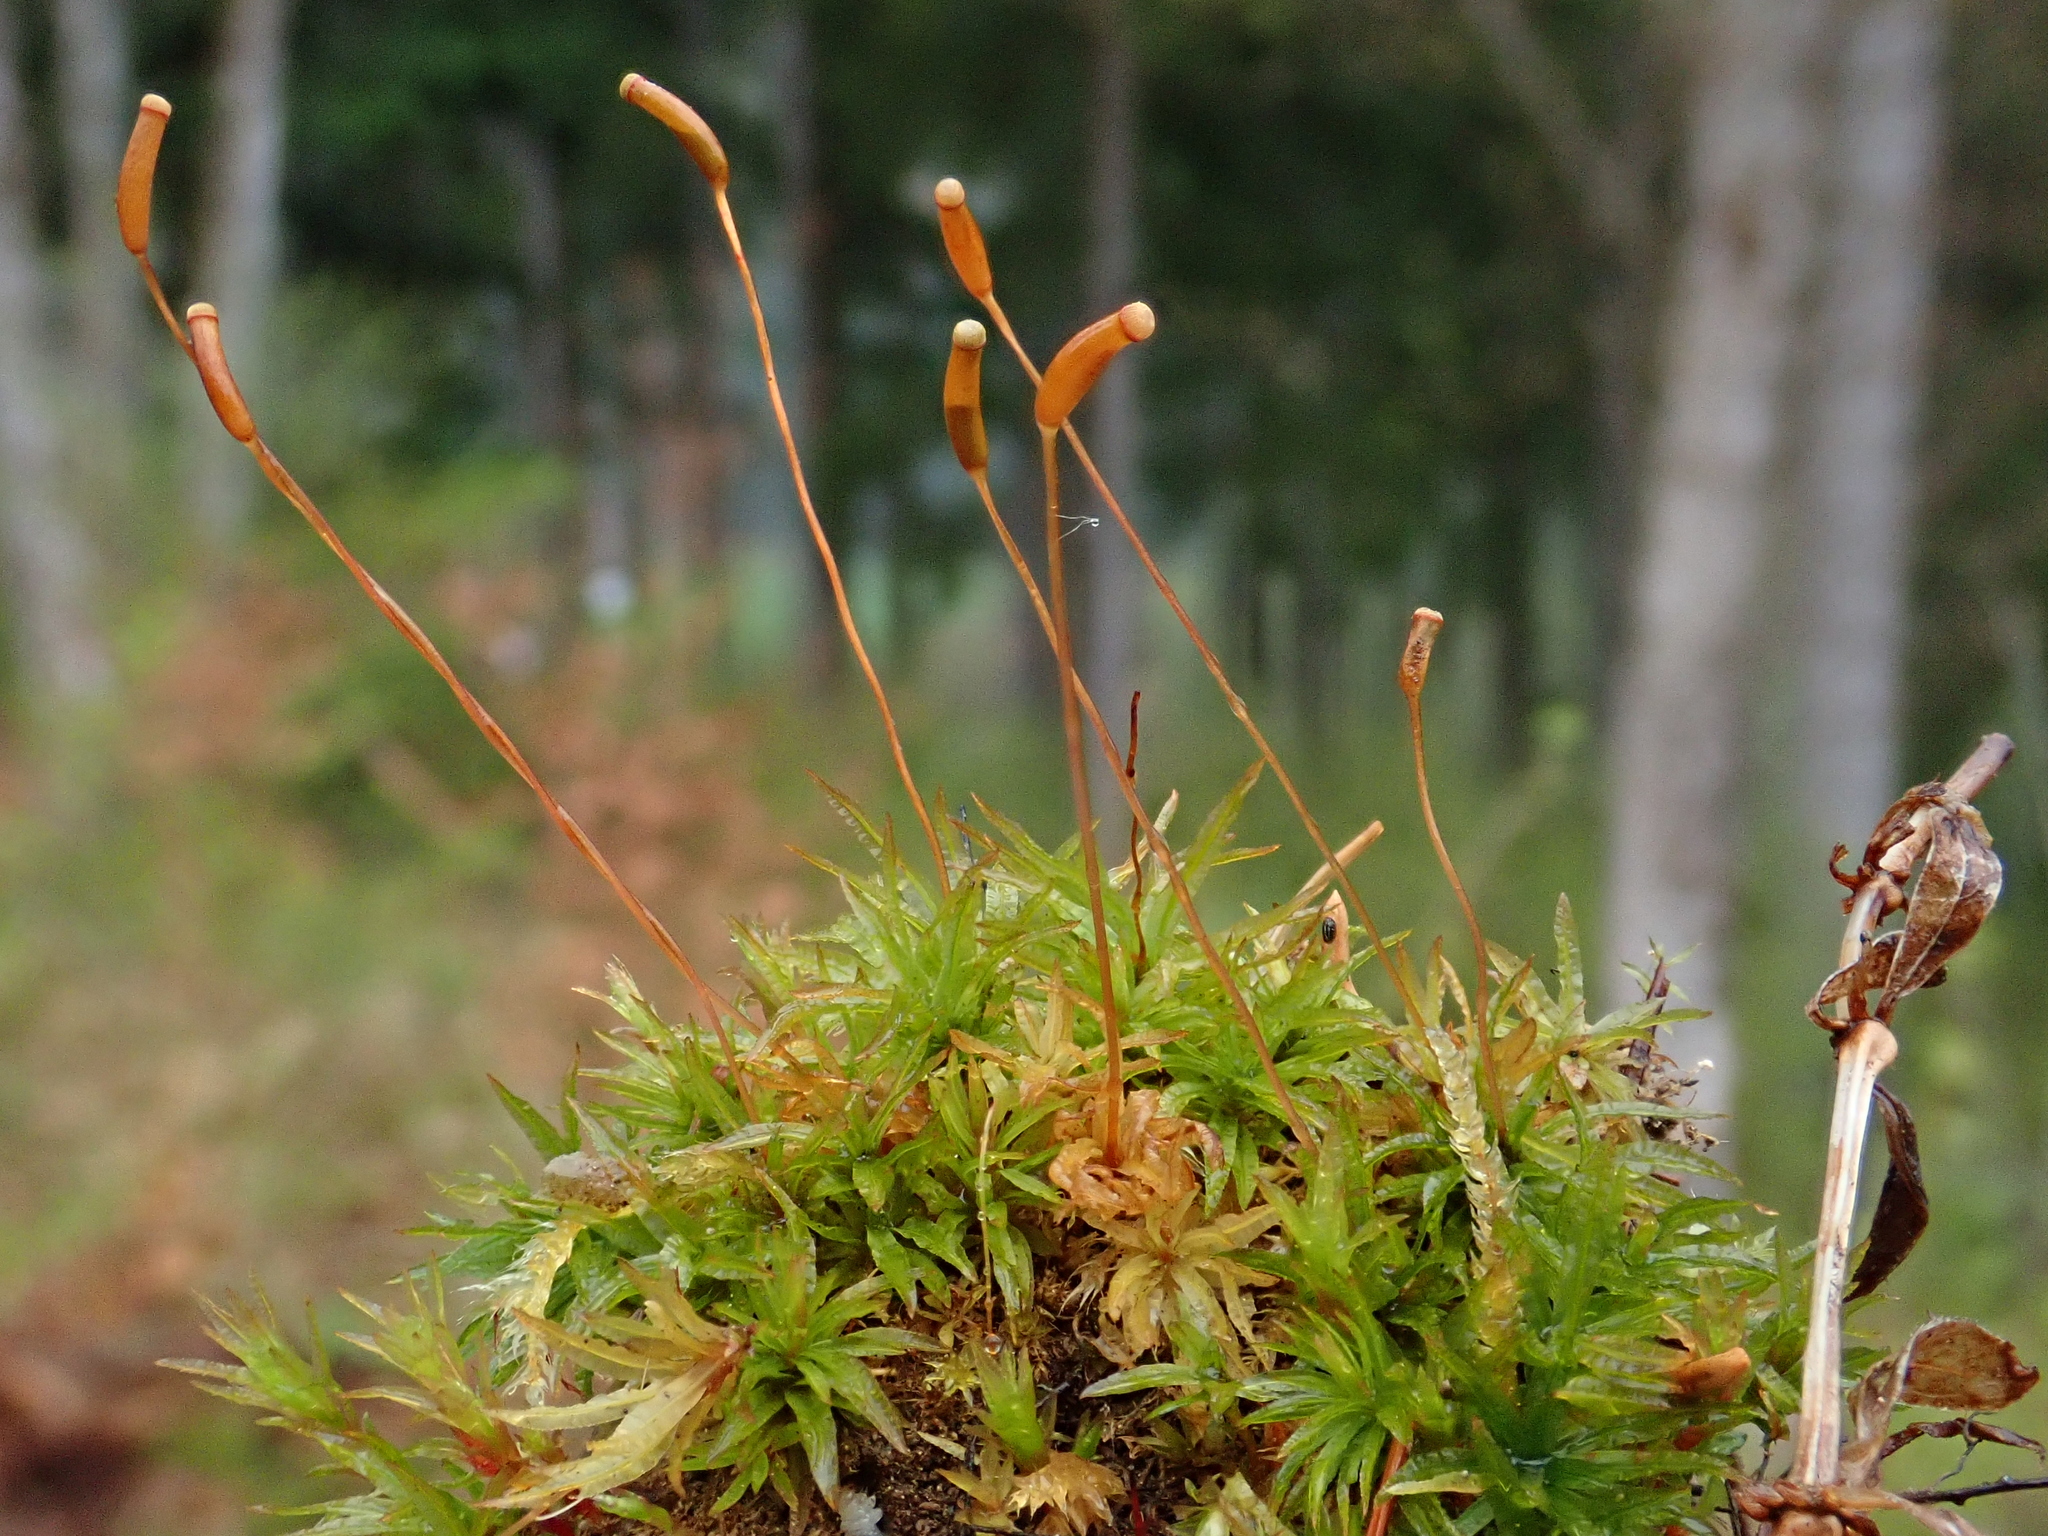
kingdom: Plantae
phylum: Bryophyta
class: Polytrichopsida
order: Polytrichales
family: Polytrichaceae
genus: Atrichum
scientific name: Atrichum undulatum
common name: Common smoothcap
